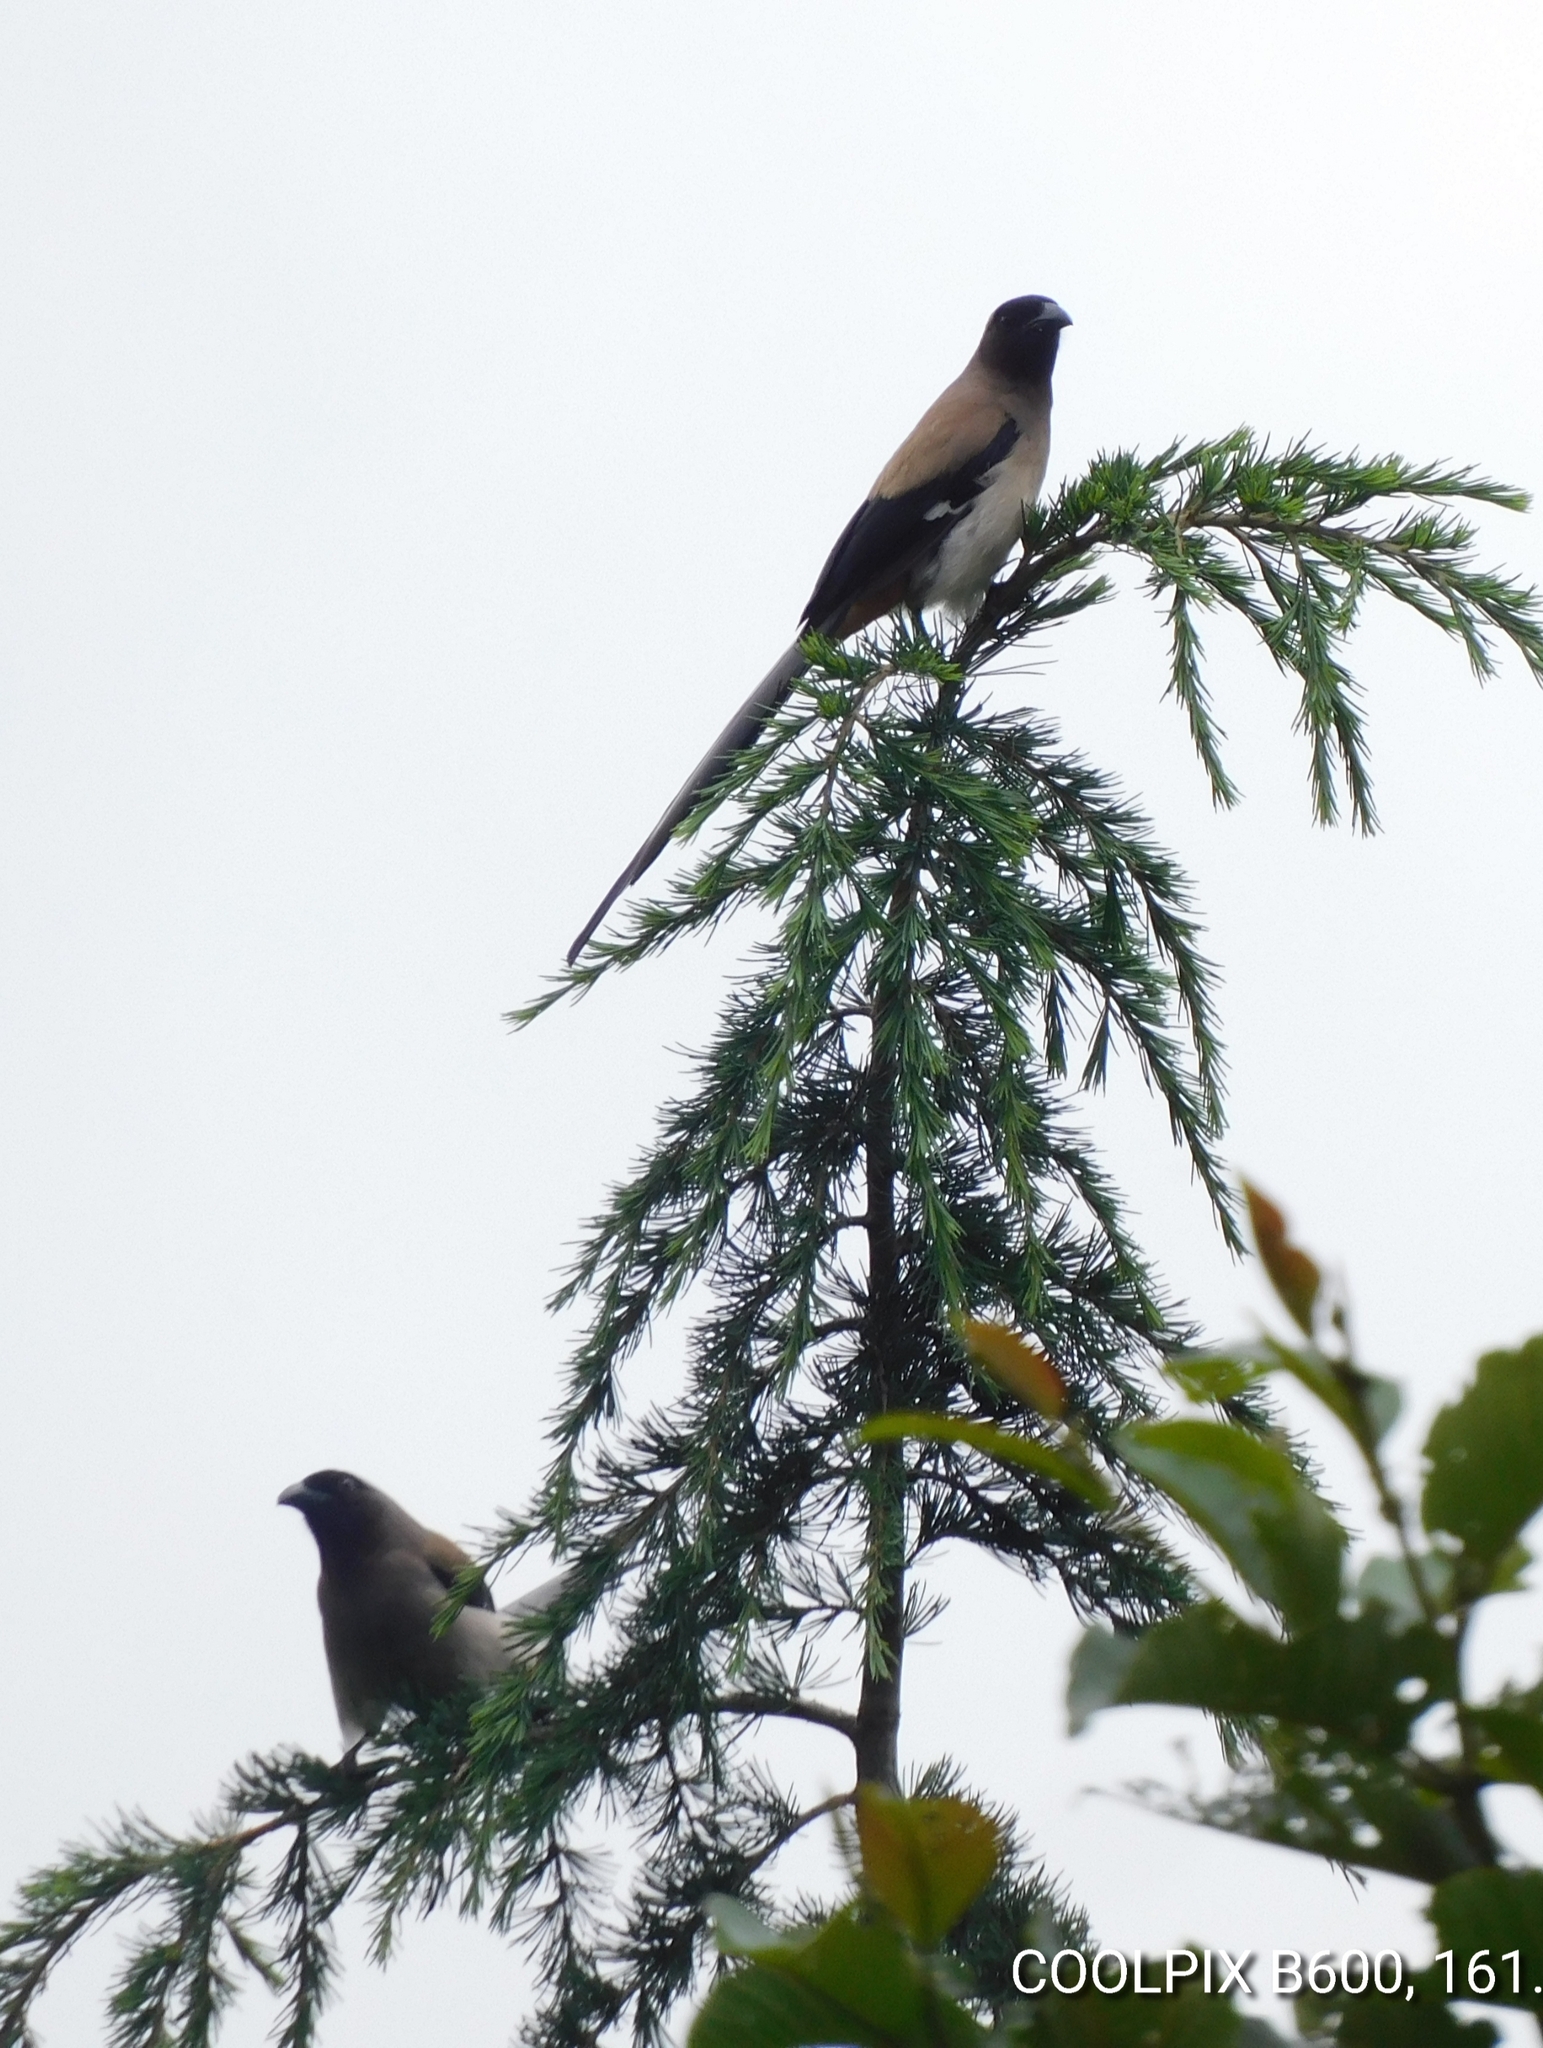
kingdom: Animalia
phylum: Chordata
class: Aves
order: Passeriformes
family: Corvidae
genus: Dendrocitta
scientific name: Dendrocitta formosae
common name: Grey treepie
